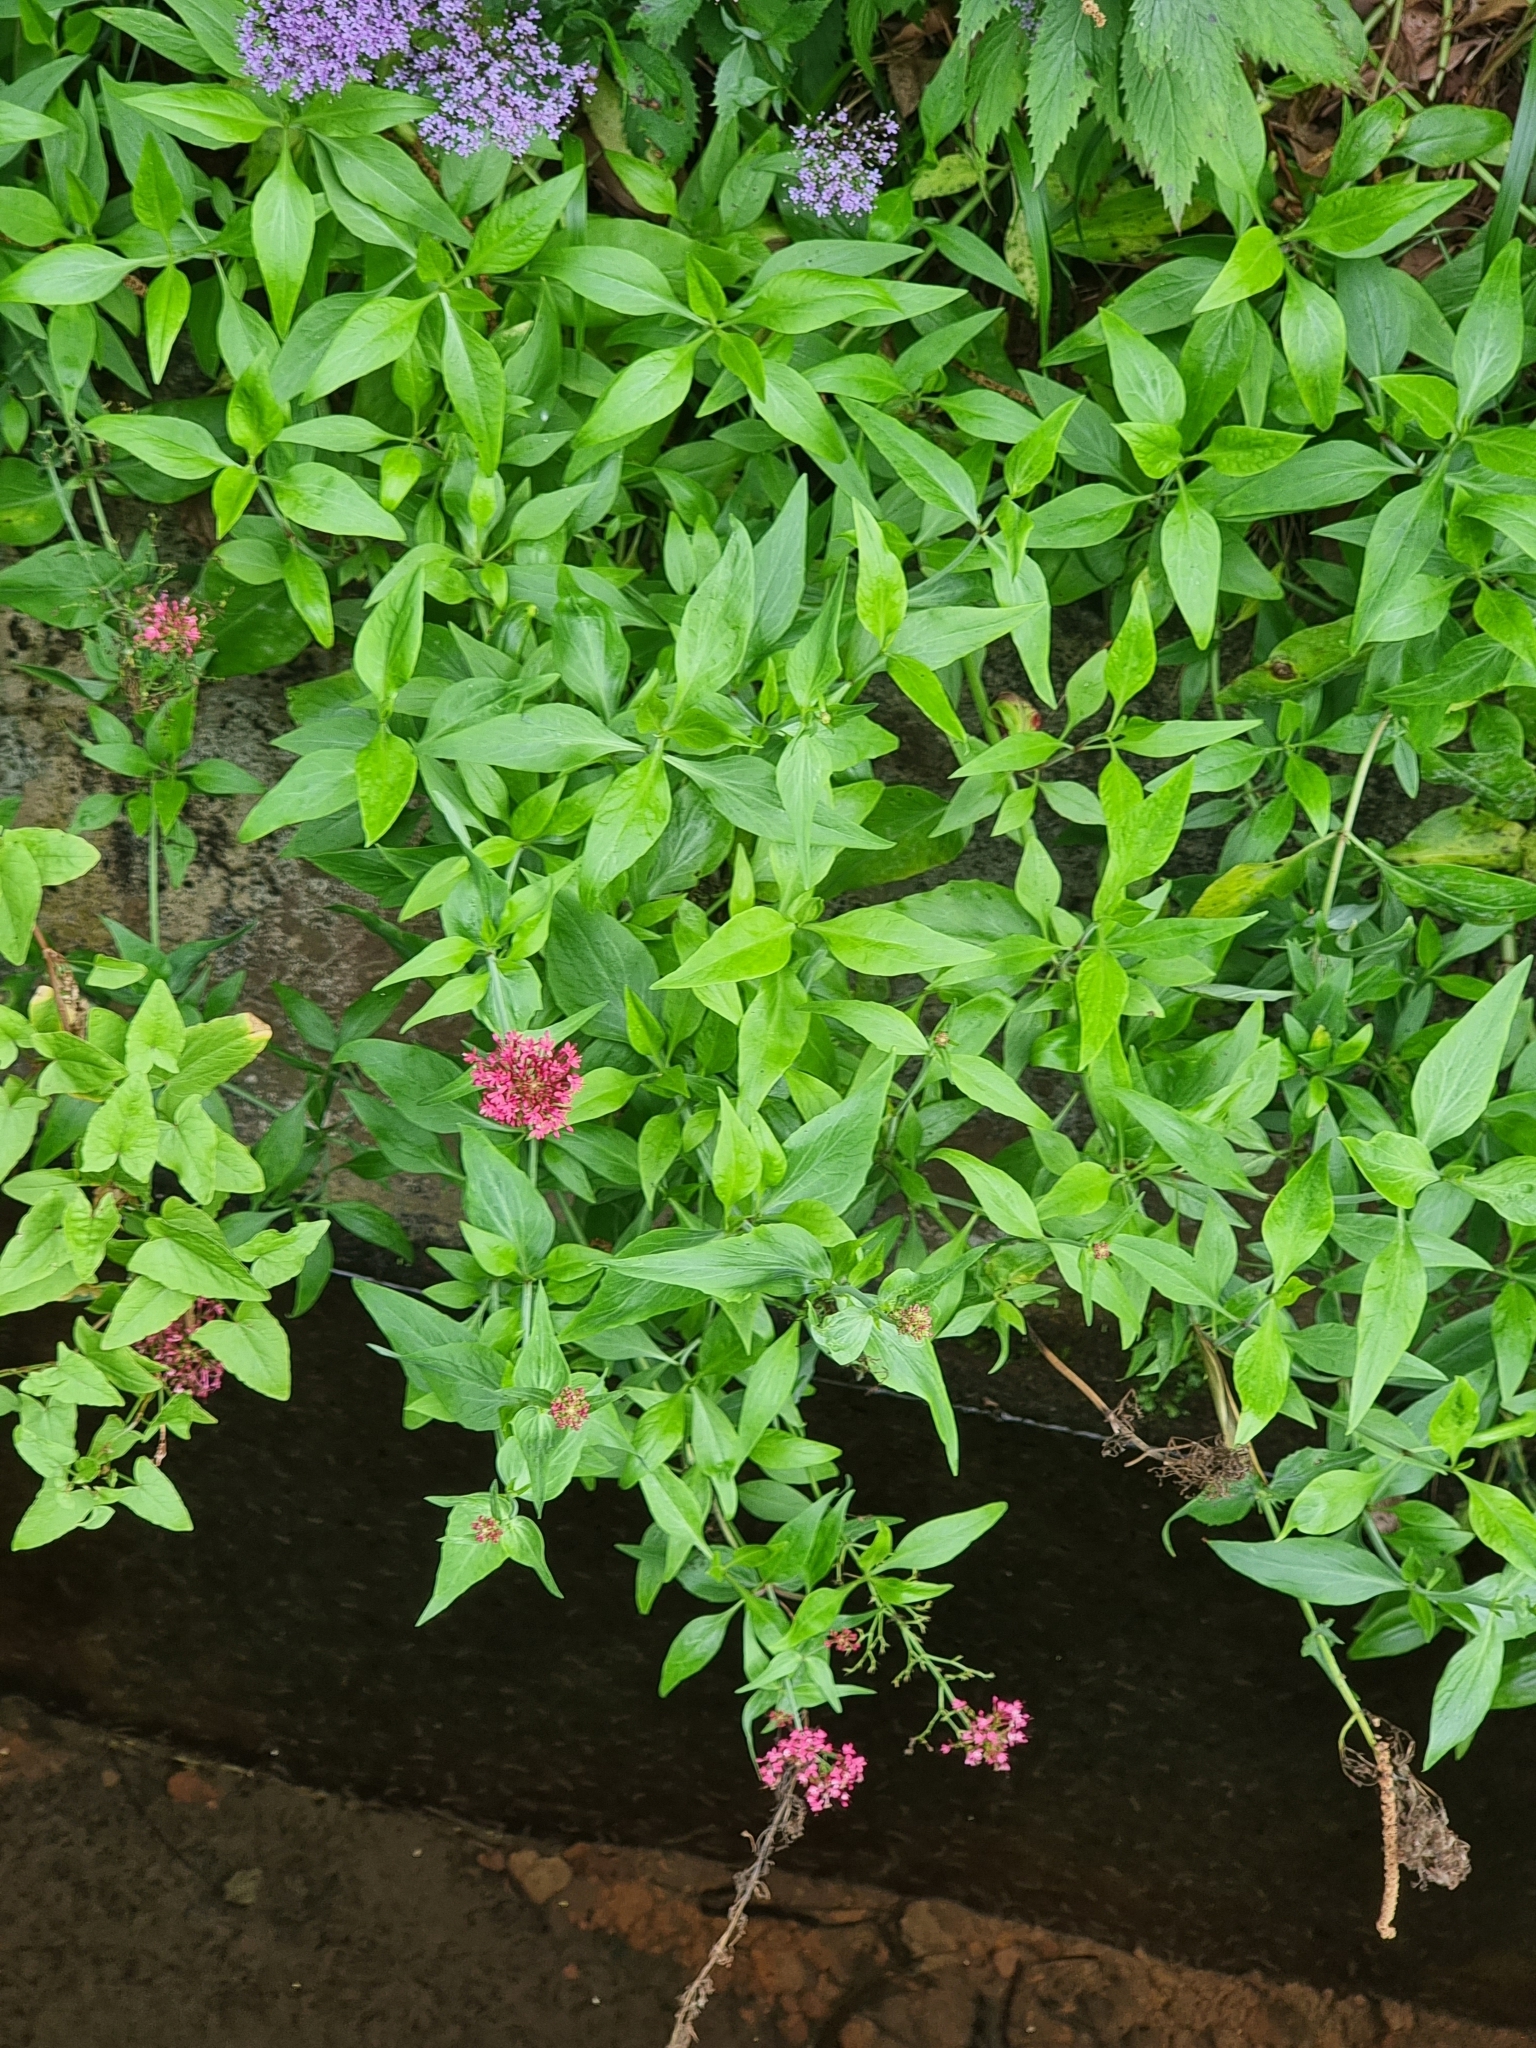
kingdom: Plantae
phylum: Tracheophyta
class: Magnoliopsida
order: Dipsacales
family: Caprifoliaceae
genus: Centranthus
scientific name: Centranthus ruber
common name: Red valerian
